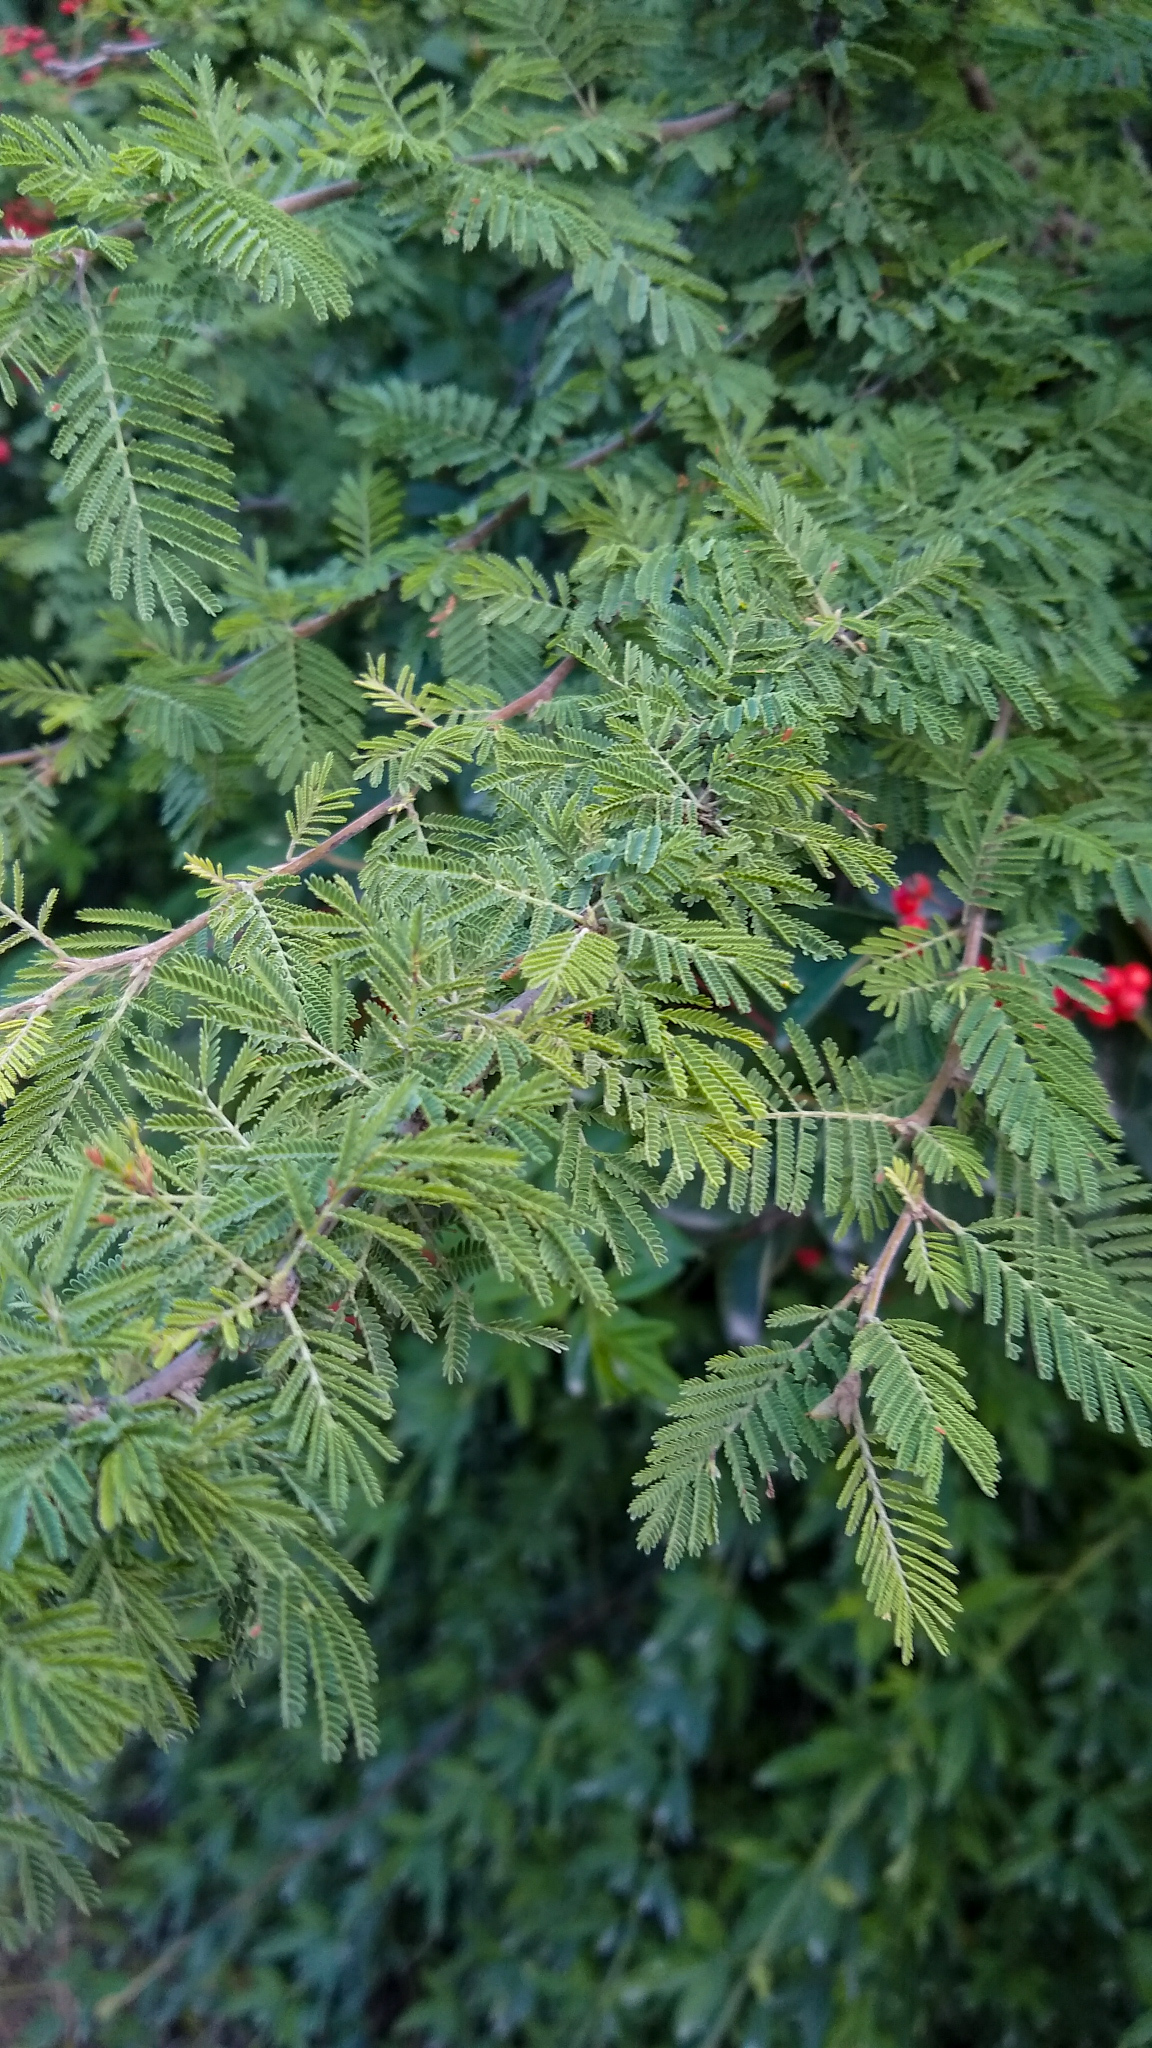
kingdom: Plantae
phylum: Tracheophyta
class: Magnoliopsida
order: Fabales
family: Fabaceae
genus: Vachellia
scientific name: Vachellia caven
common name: Roman cassie
